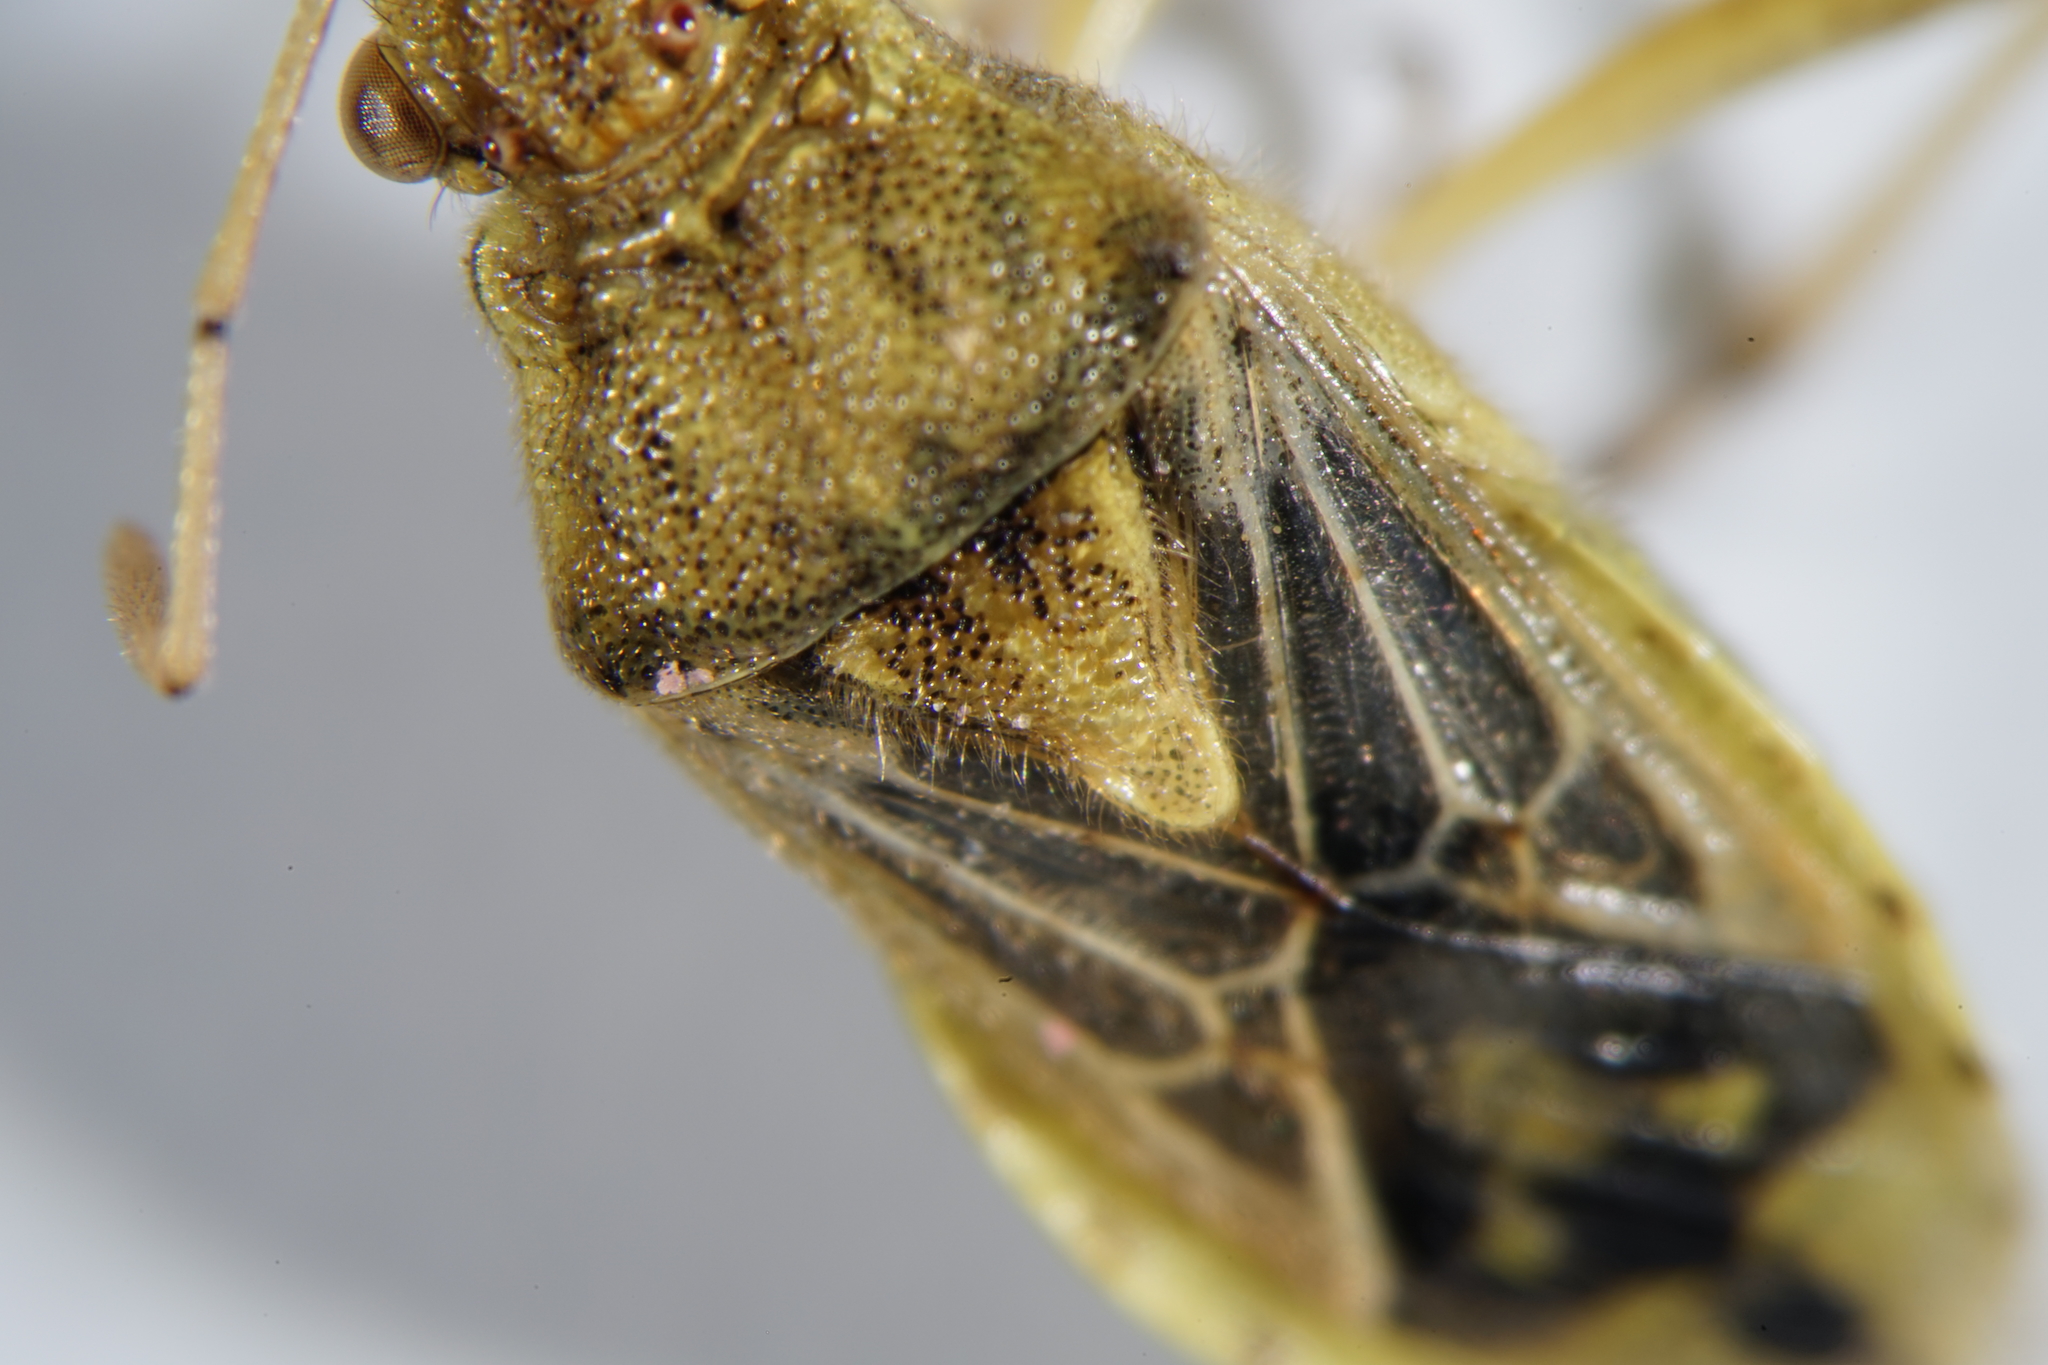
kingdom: Animalia
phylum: Arthropoda
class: Insecta
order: Hemiptera
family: Rhopalidae
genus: Stictopleurus
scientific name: Stictopleurus abutilon
